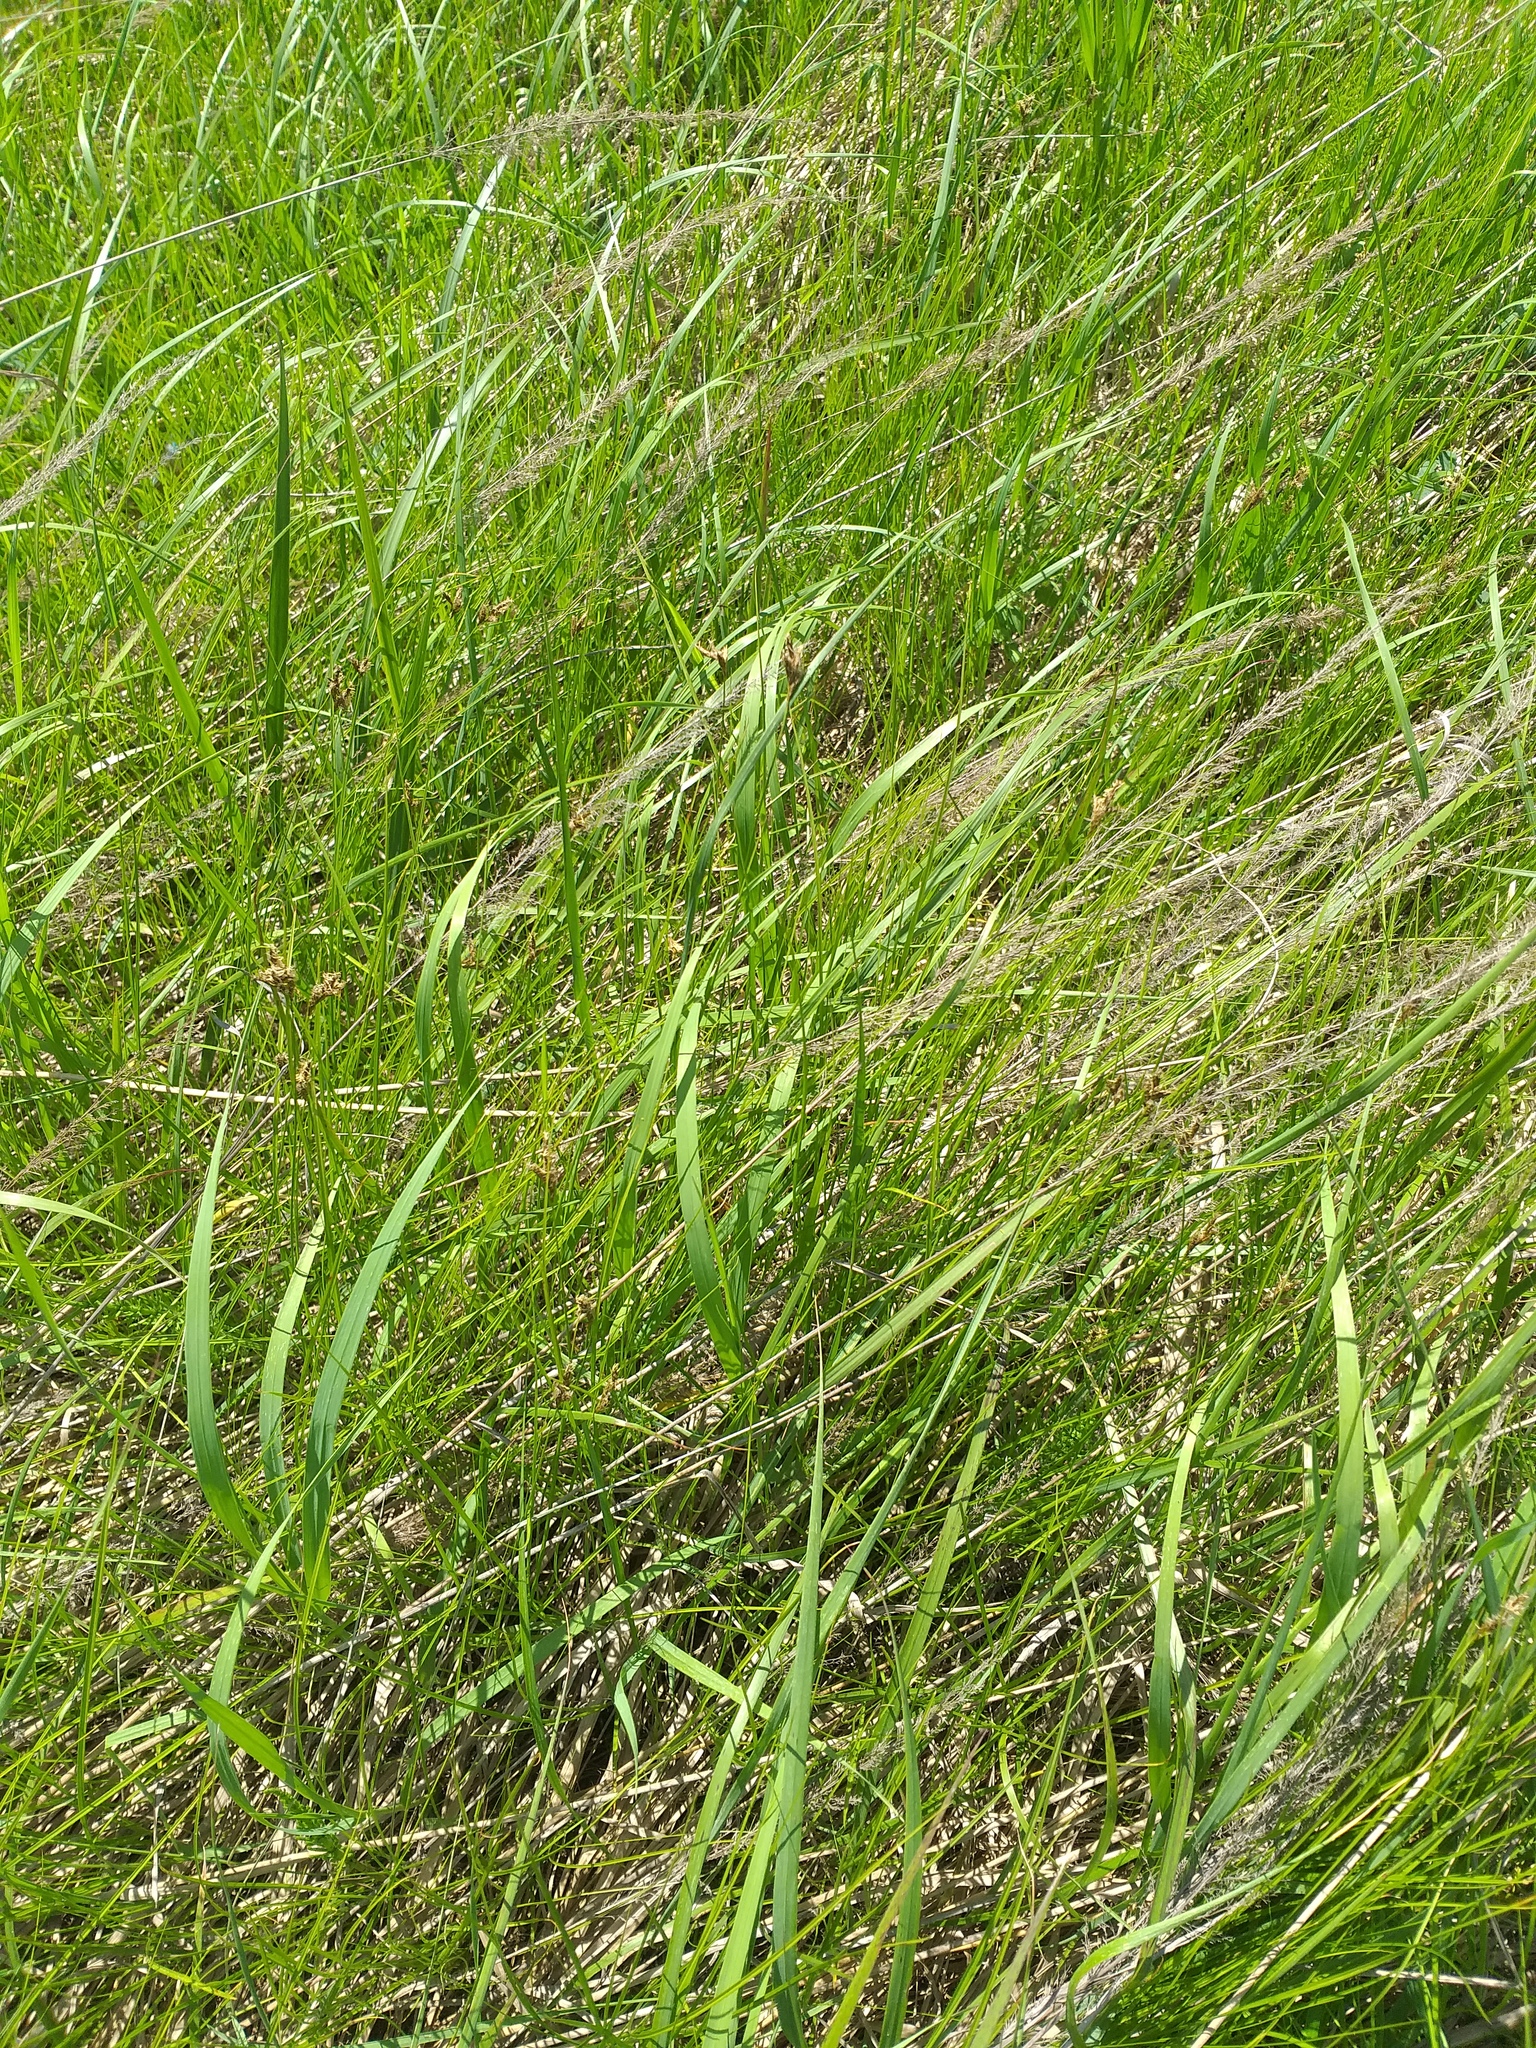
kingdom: Plantae
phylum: Tracheophyta
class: Liliopsida
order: Poales
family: Poaceae
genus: Calamagrostis
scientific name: Calamagrostis epigejos
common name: Wood small-reed
